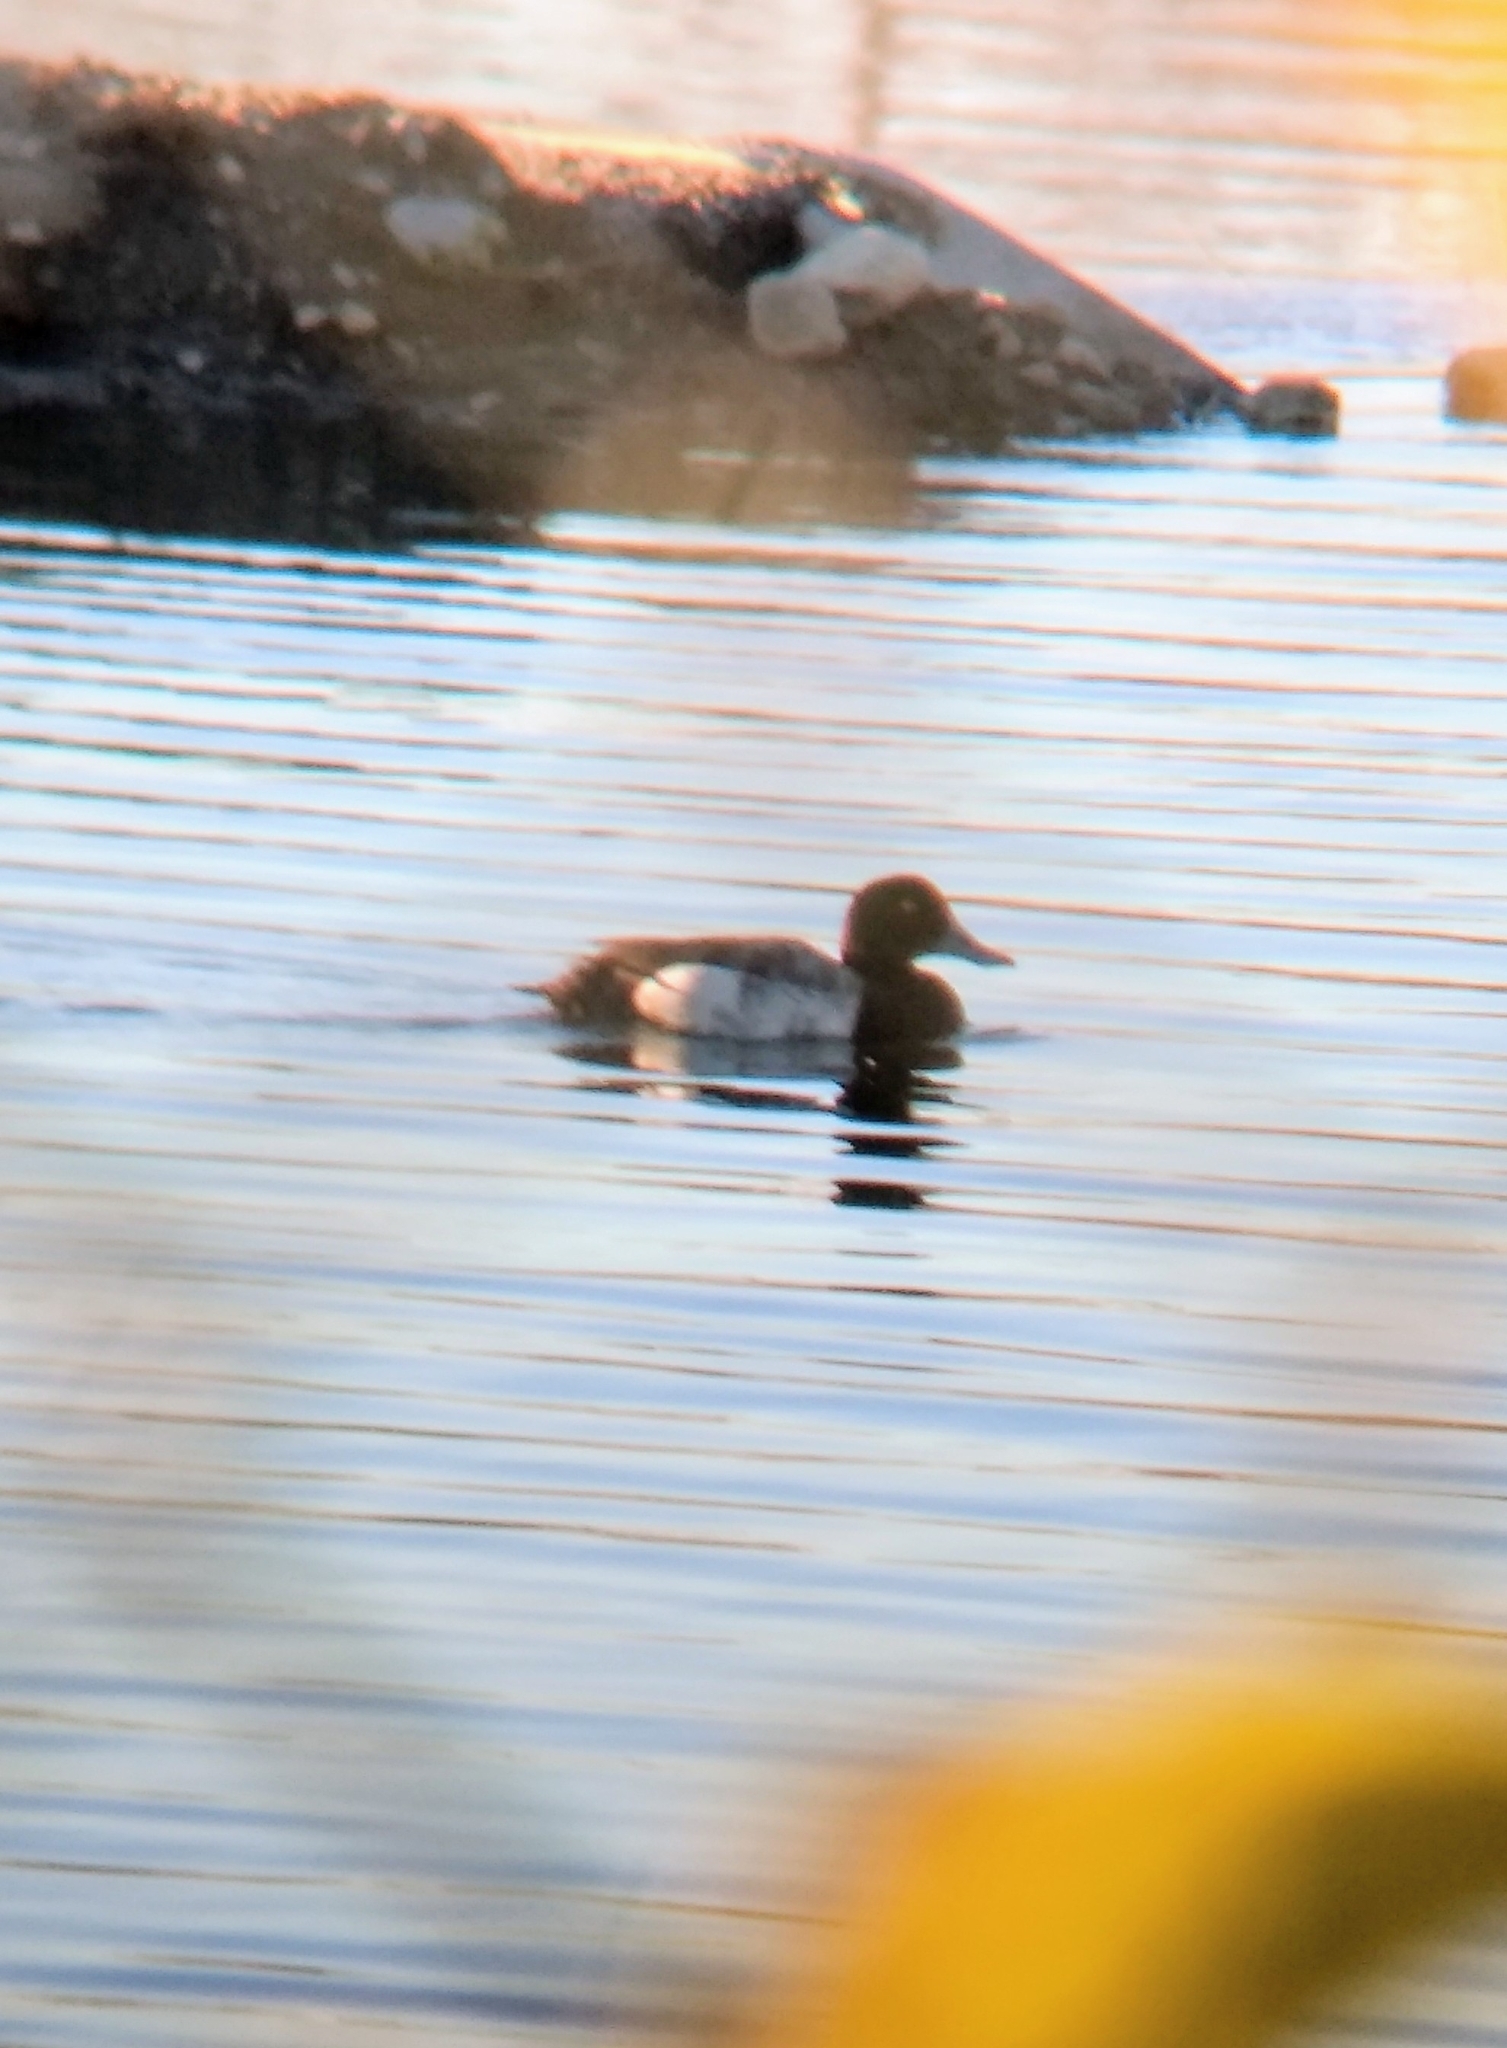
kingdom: Animalia
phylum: Chordata
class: Aves
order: Anseriformes
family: Anatidae
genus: Aythya
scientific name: Aythya marila
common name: Greater scaup
